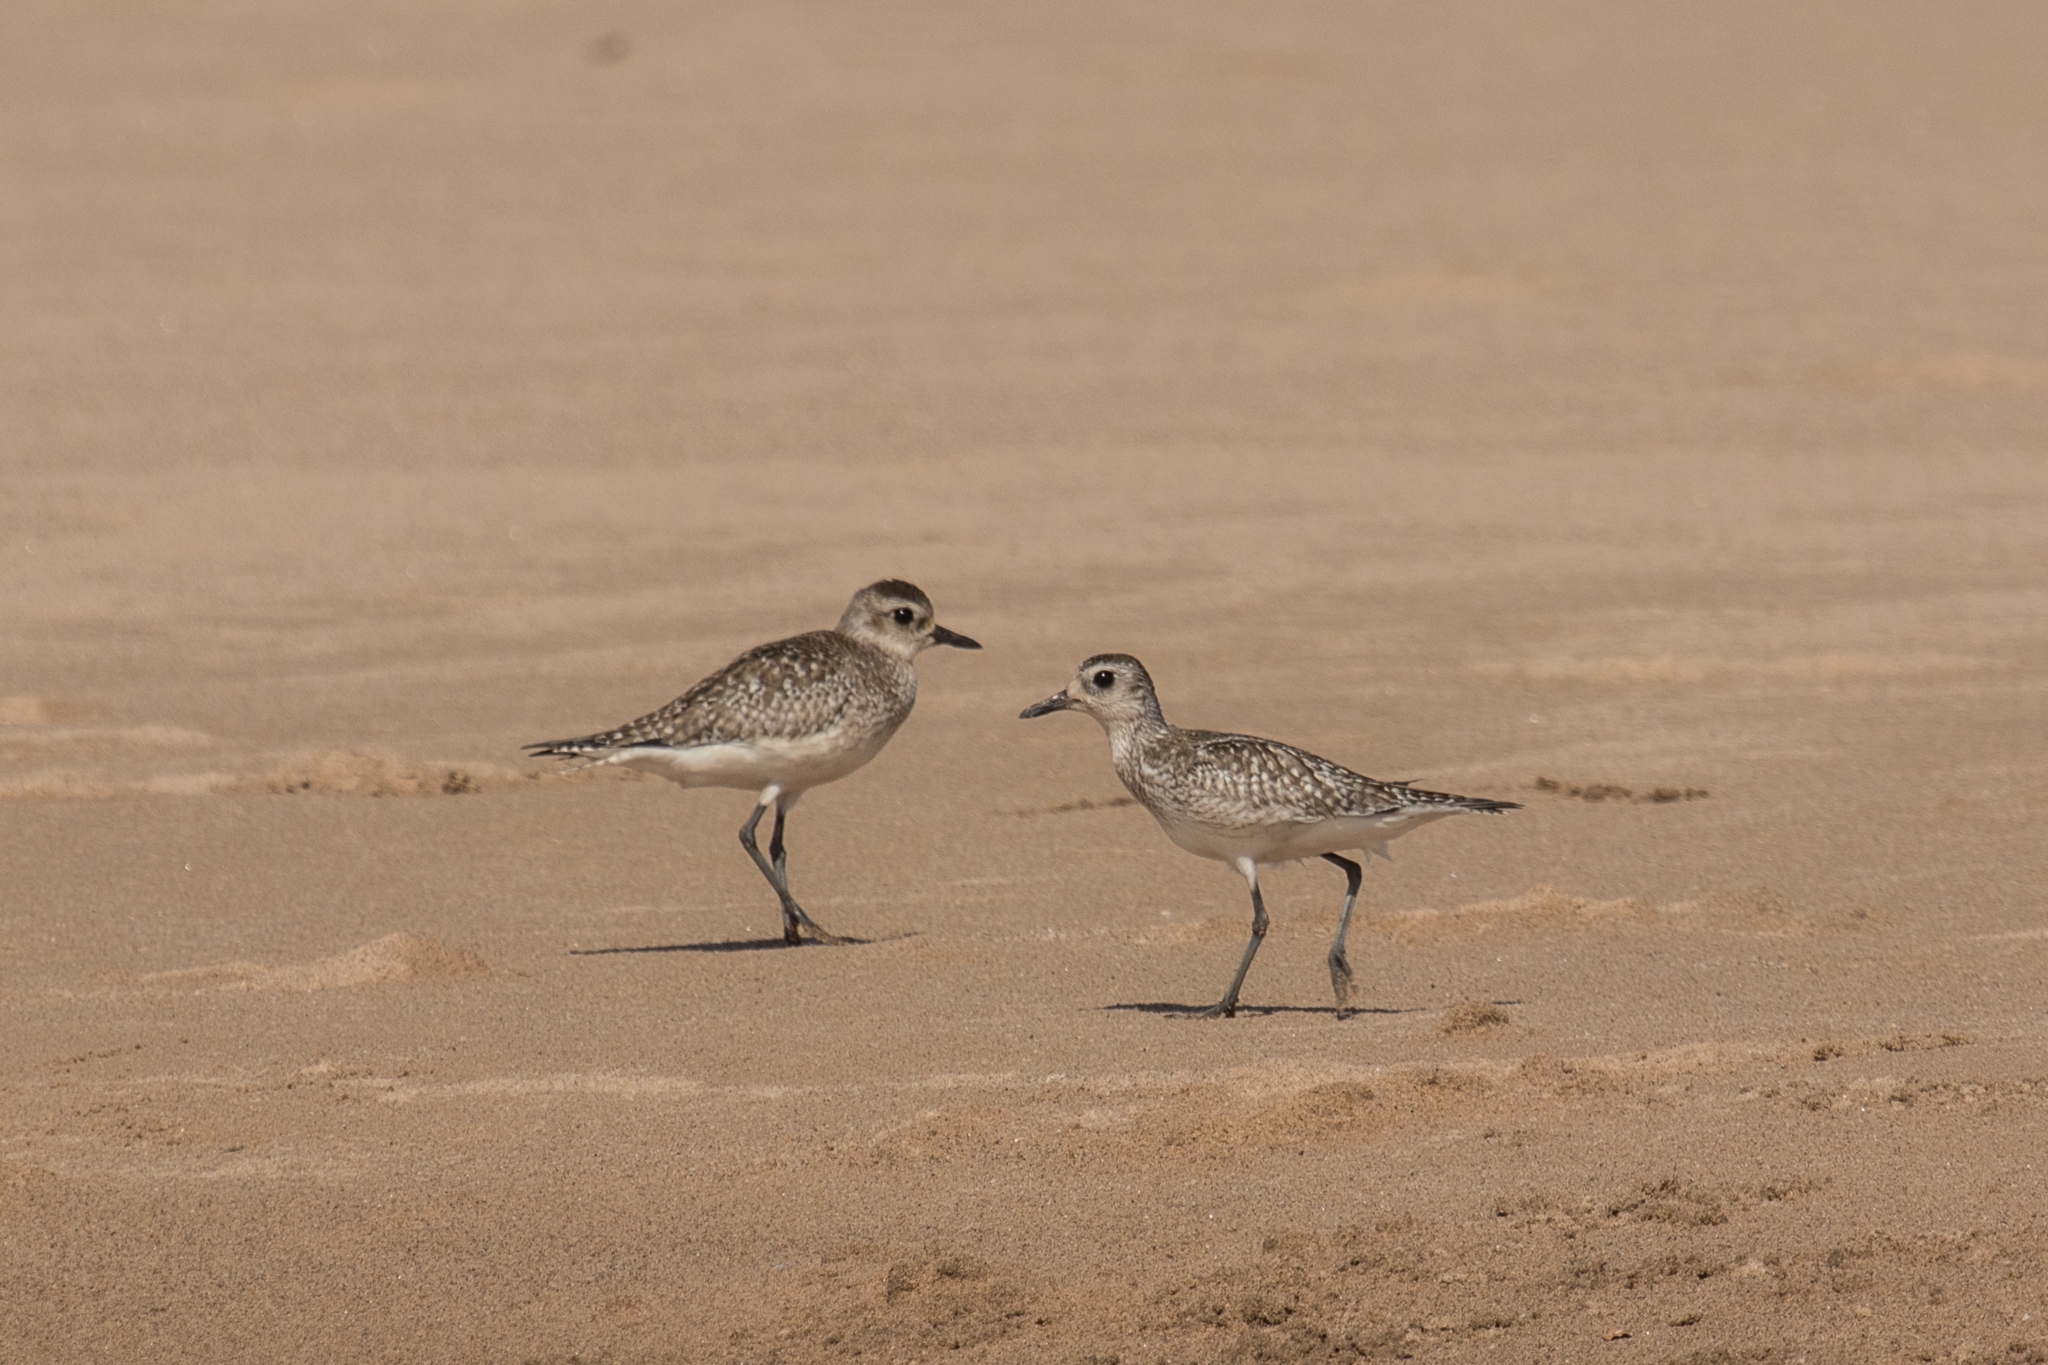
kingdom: Animalia
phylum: Chordata
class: Aves
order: Charadriiformes
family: Charadriidae
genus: Pluvialis
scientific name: Pluvialis squatarola
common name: Grey plover
